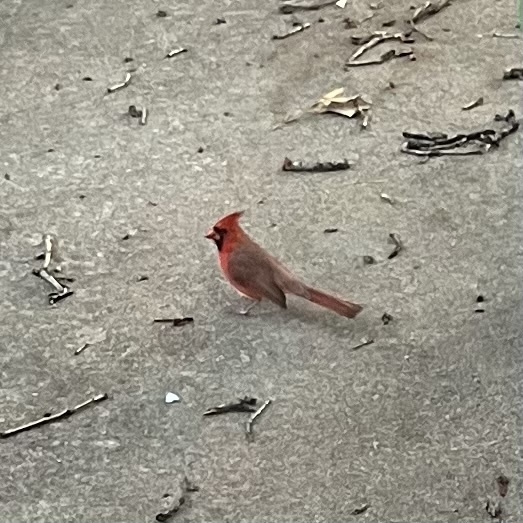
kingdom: Animalia
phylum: Chordata
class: Aves
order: Passeriformes
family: Cardinalidae
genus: Cardinalis
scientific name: Cardinalis cardinalis
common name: Northern cardinal
